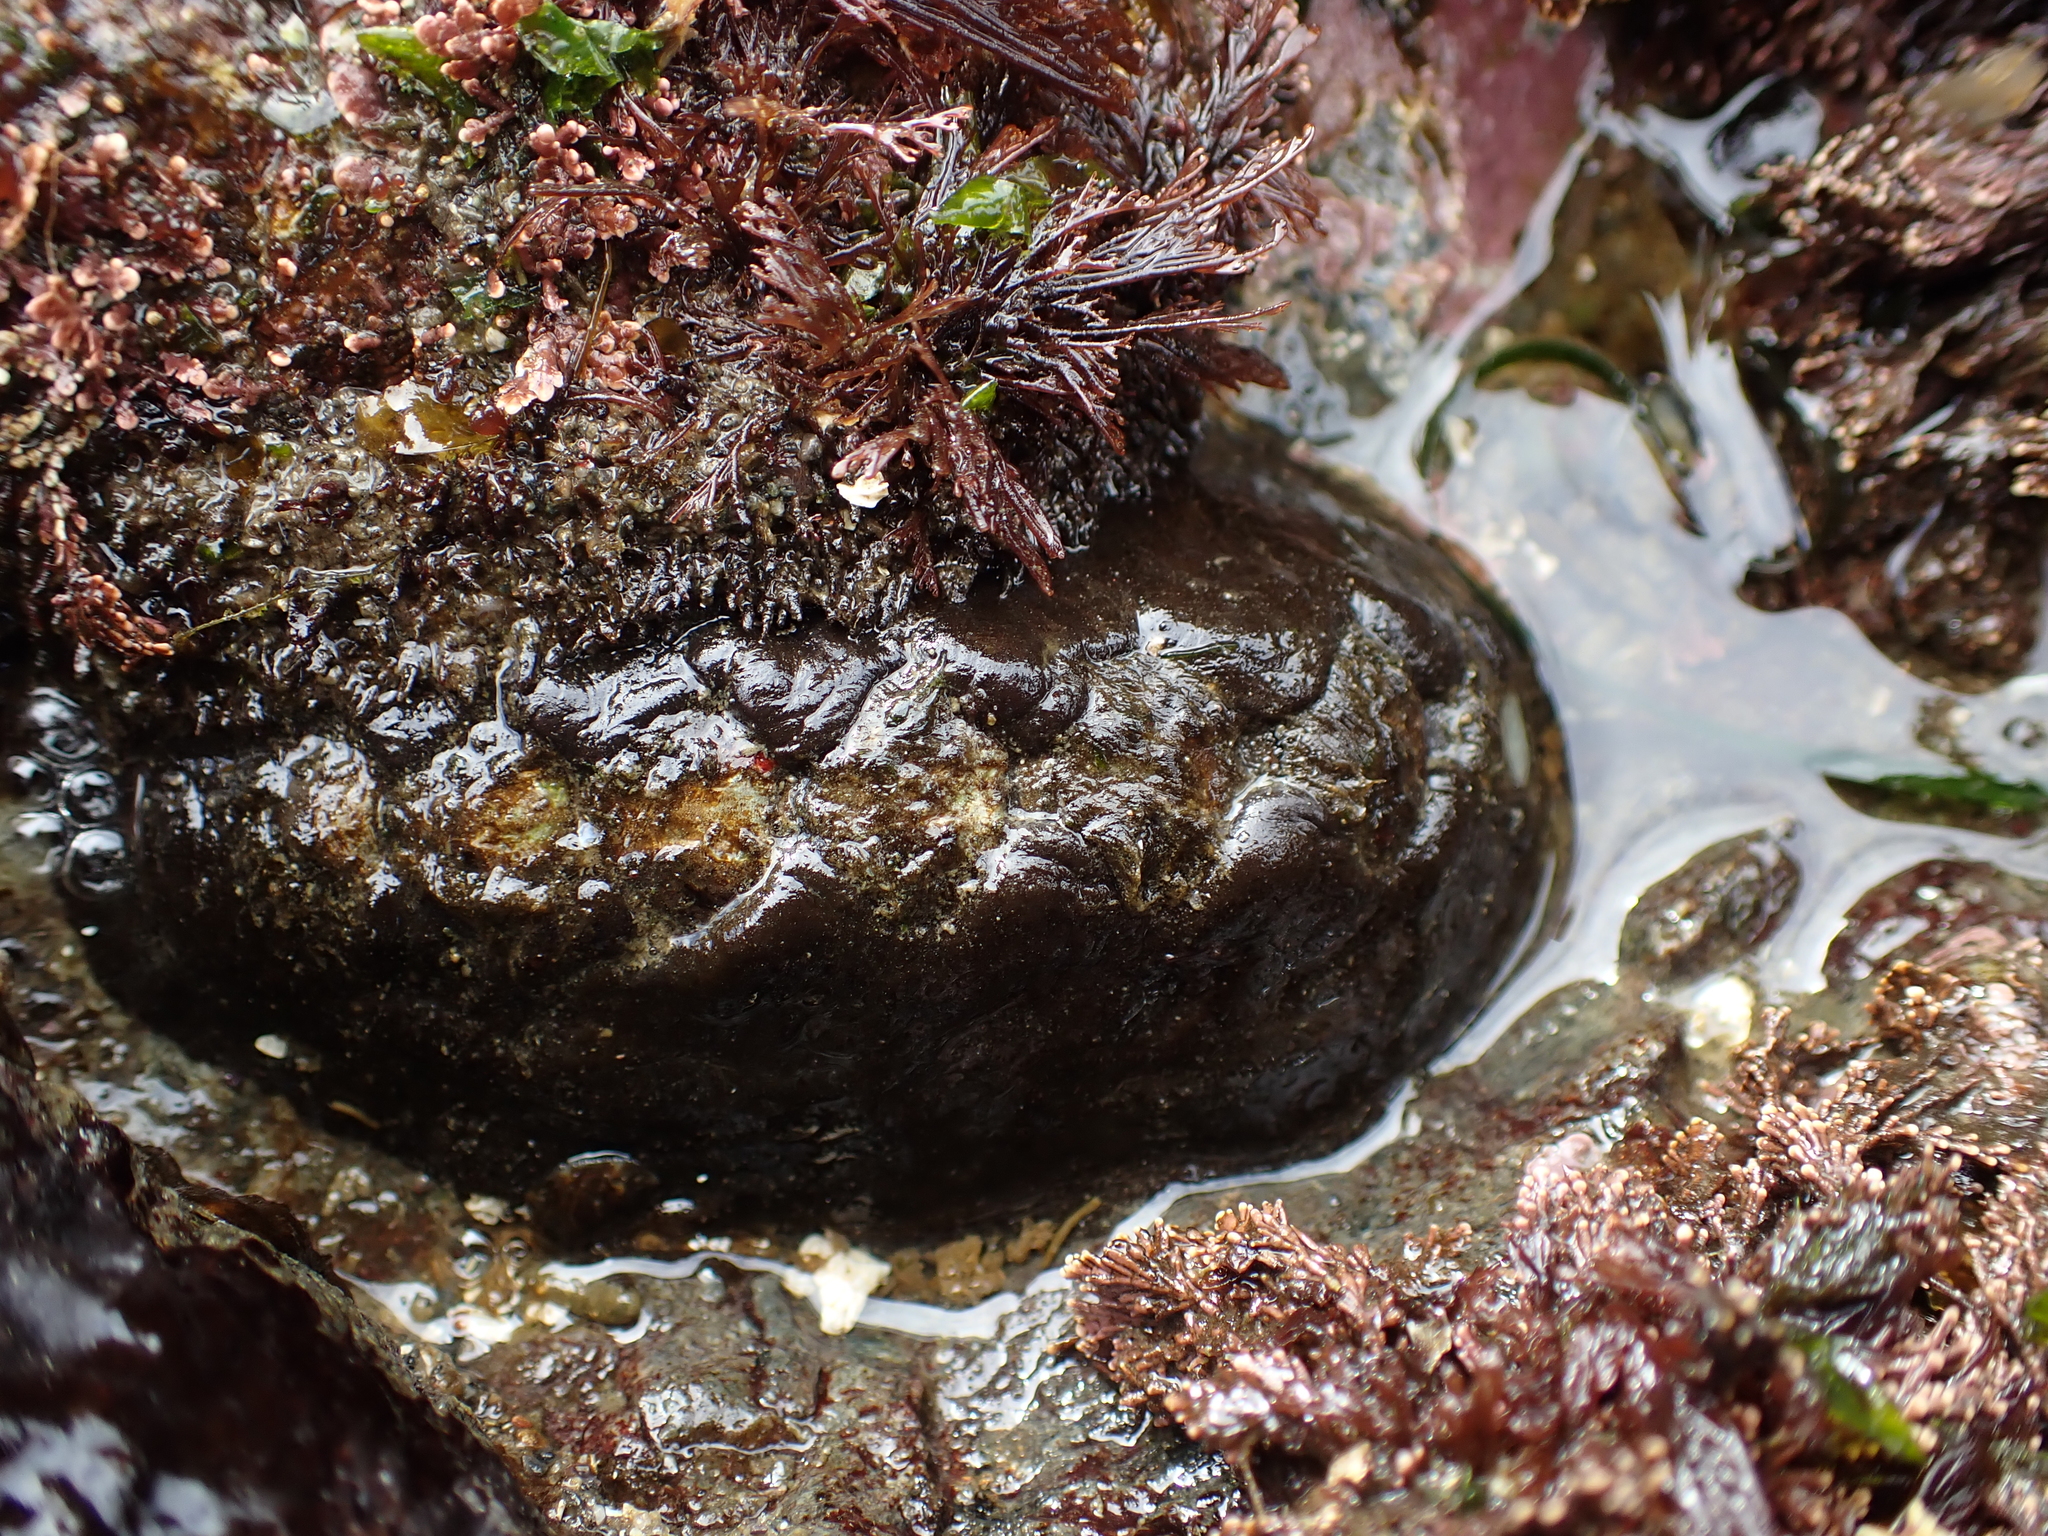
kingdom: Animalia
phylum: Mollusca
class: Polyplacophora
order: Chitonida
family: Mopaliidae
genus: Katharina
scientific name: Katharina tunicata
